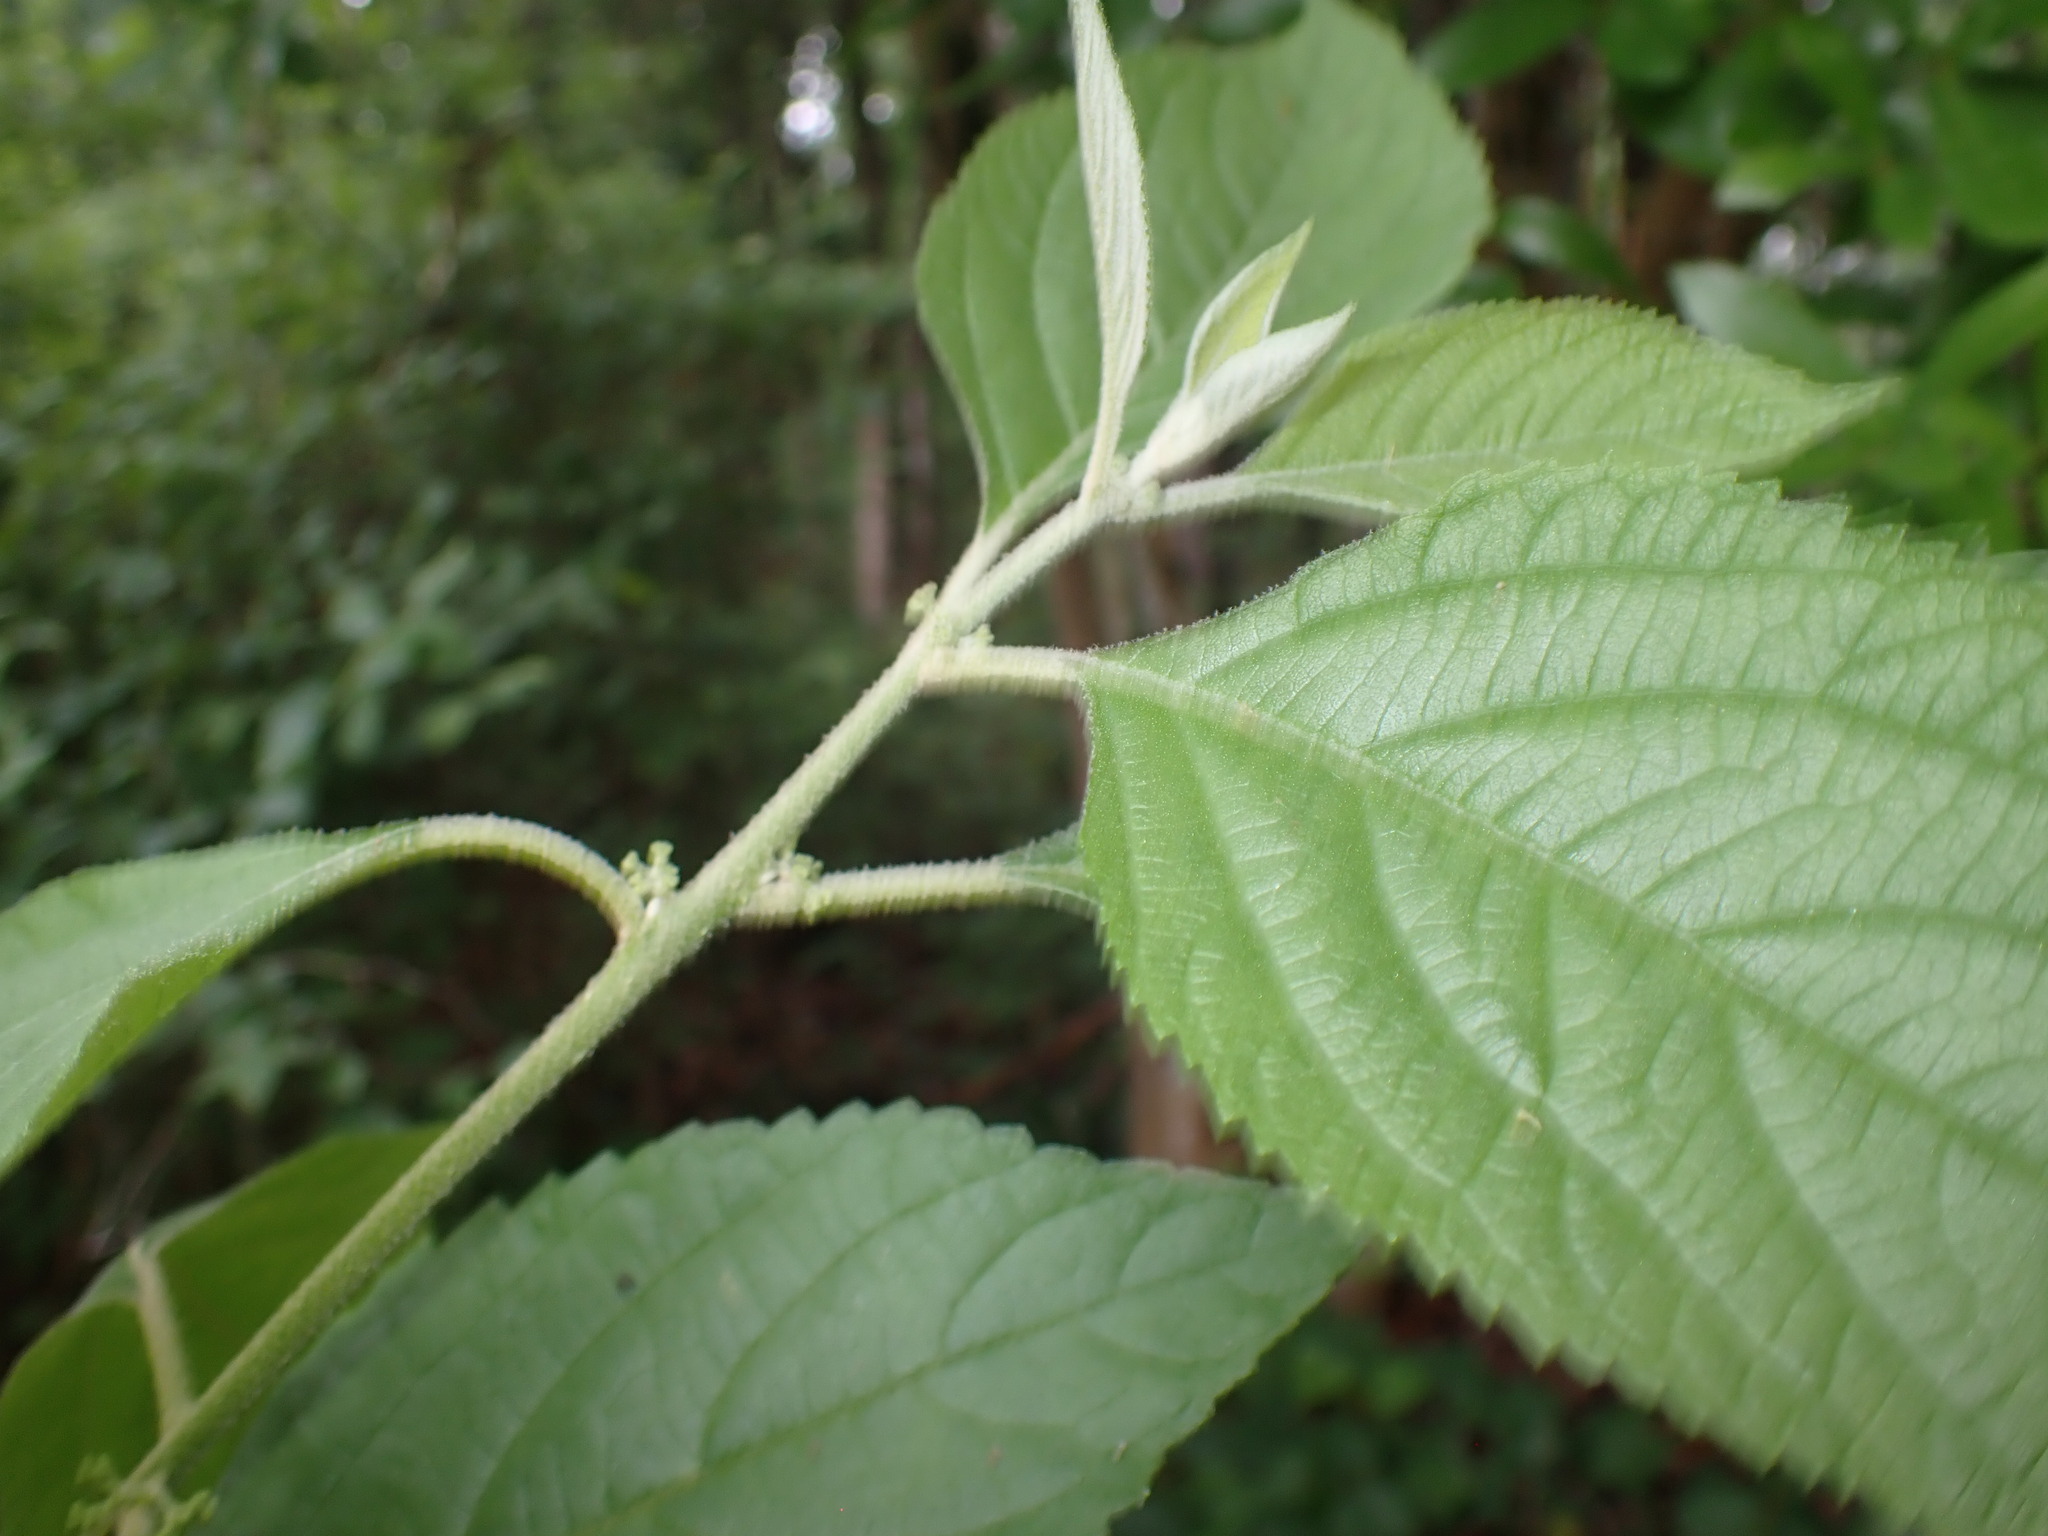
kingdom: Plantae
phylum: Tracheophyta
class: Magnoliopsida
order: Lamiales
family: Lamiaceae
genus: Callicarpa
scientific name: Callicarpa americana
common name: American beautyberry
